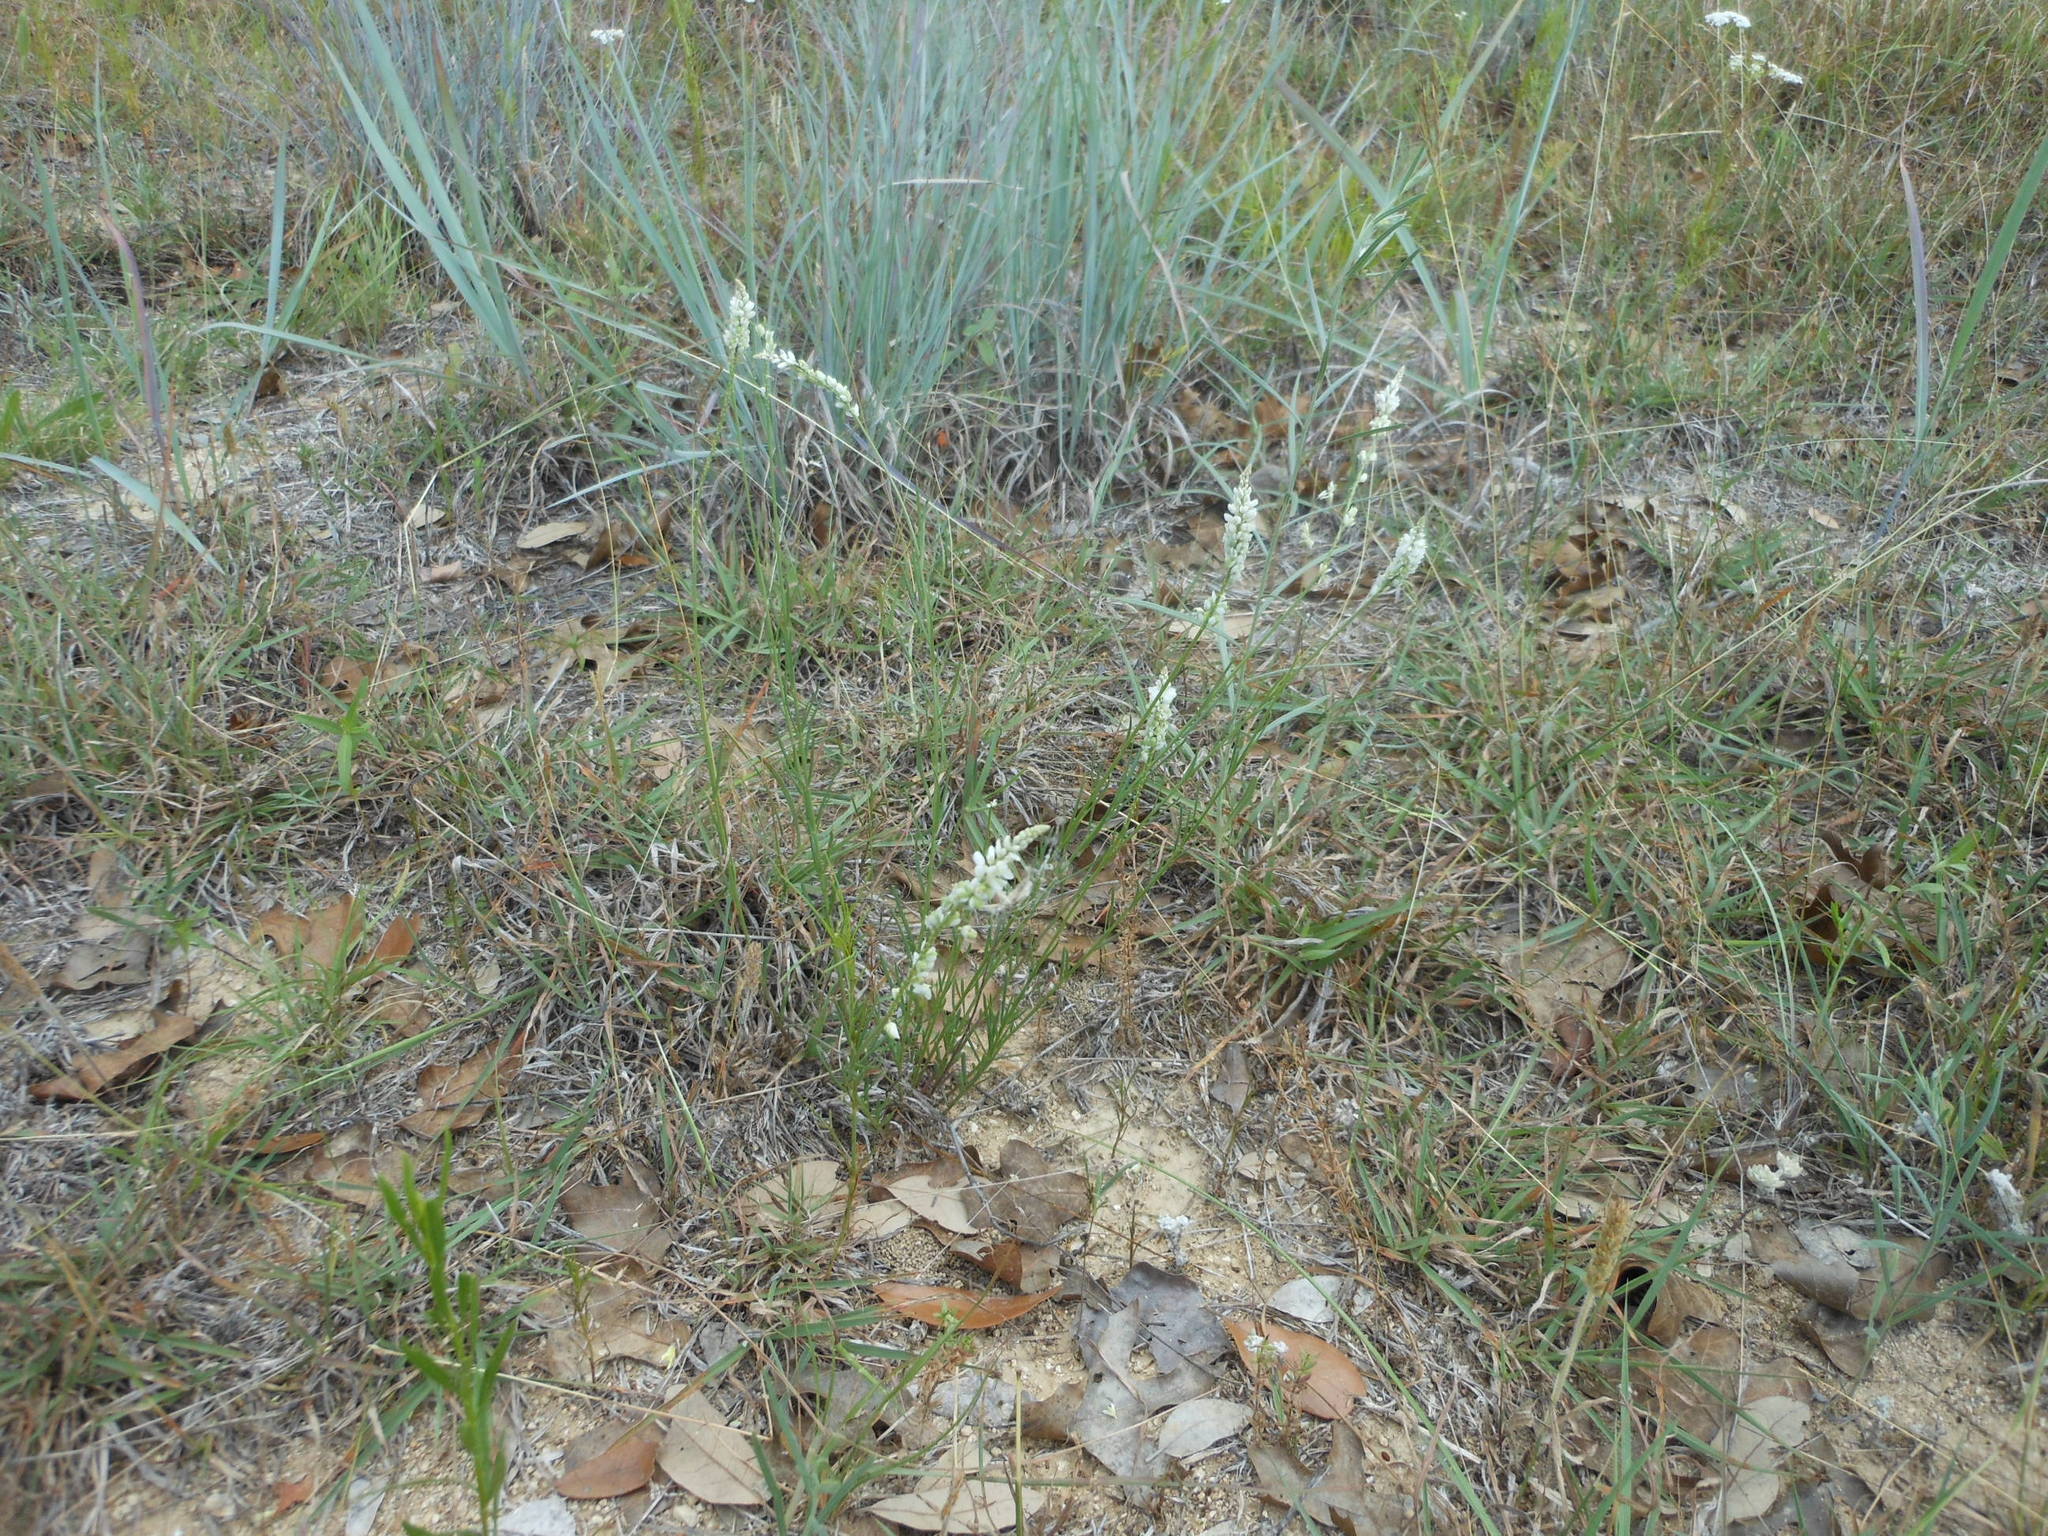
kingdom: Plantae
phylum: Tracheophyta
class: Magnoliopsida
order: Fabales
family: Polygalaceae
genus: Polygala
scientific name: Polygala alba
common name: White milkwort
